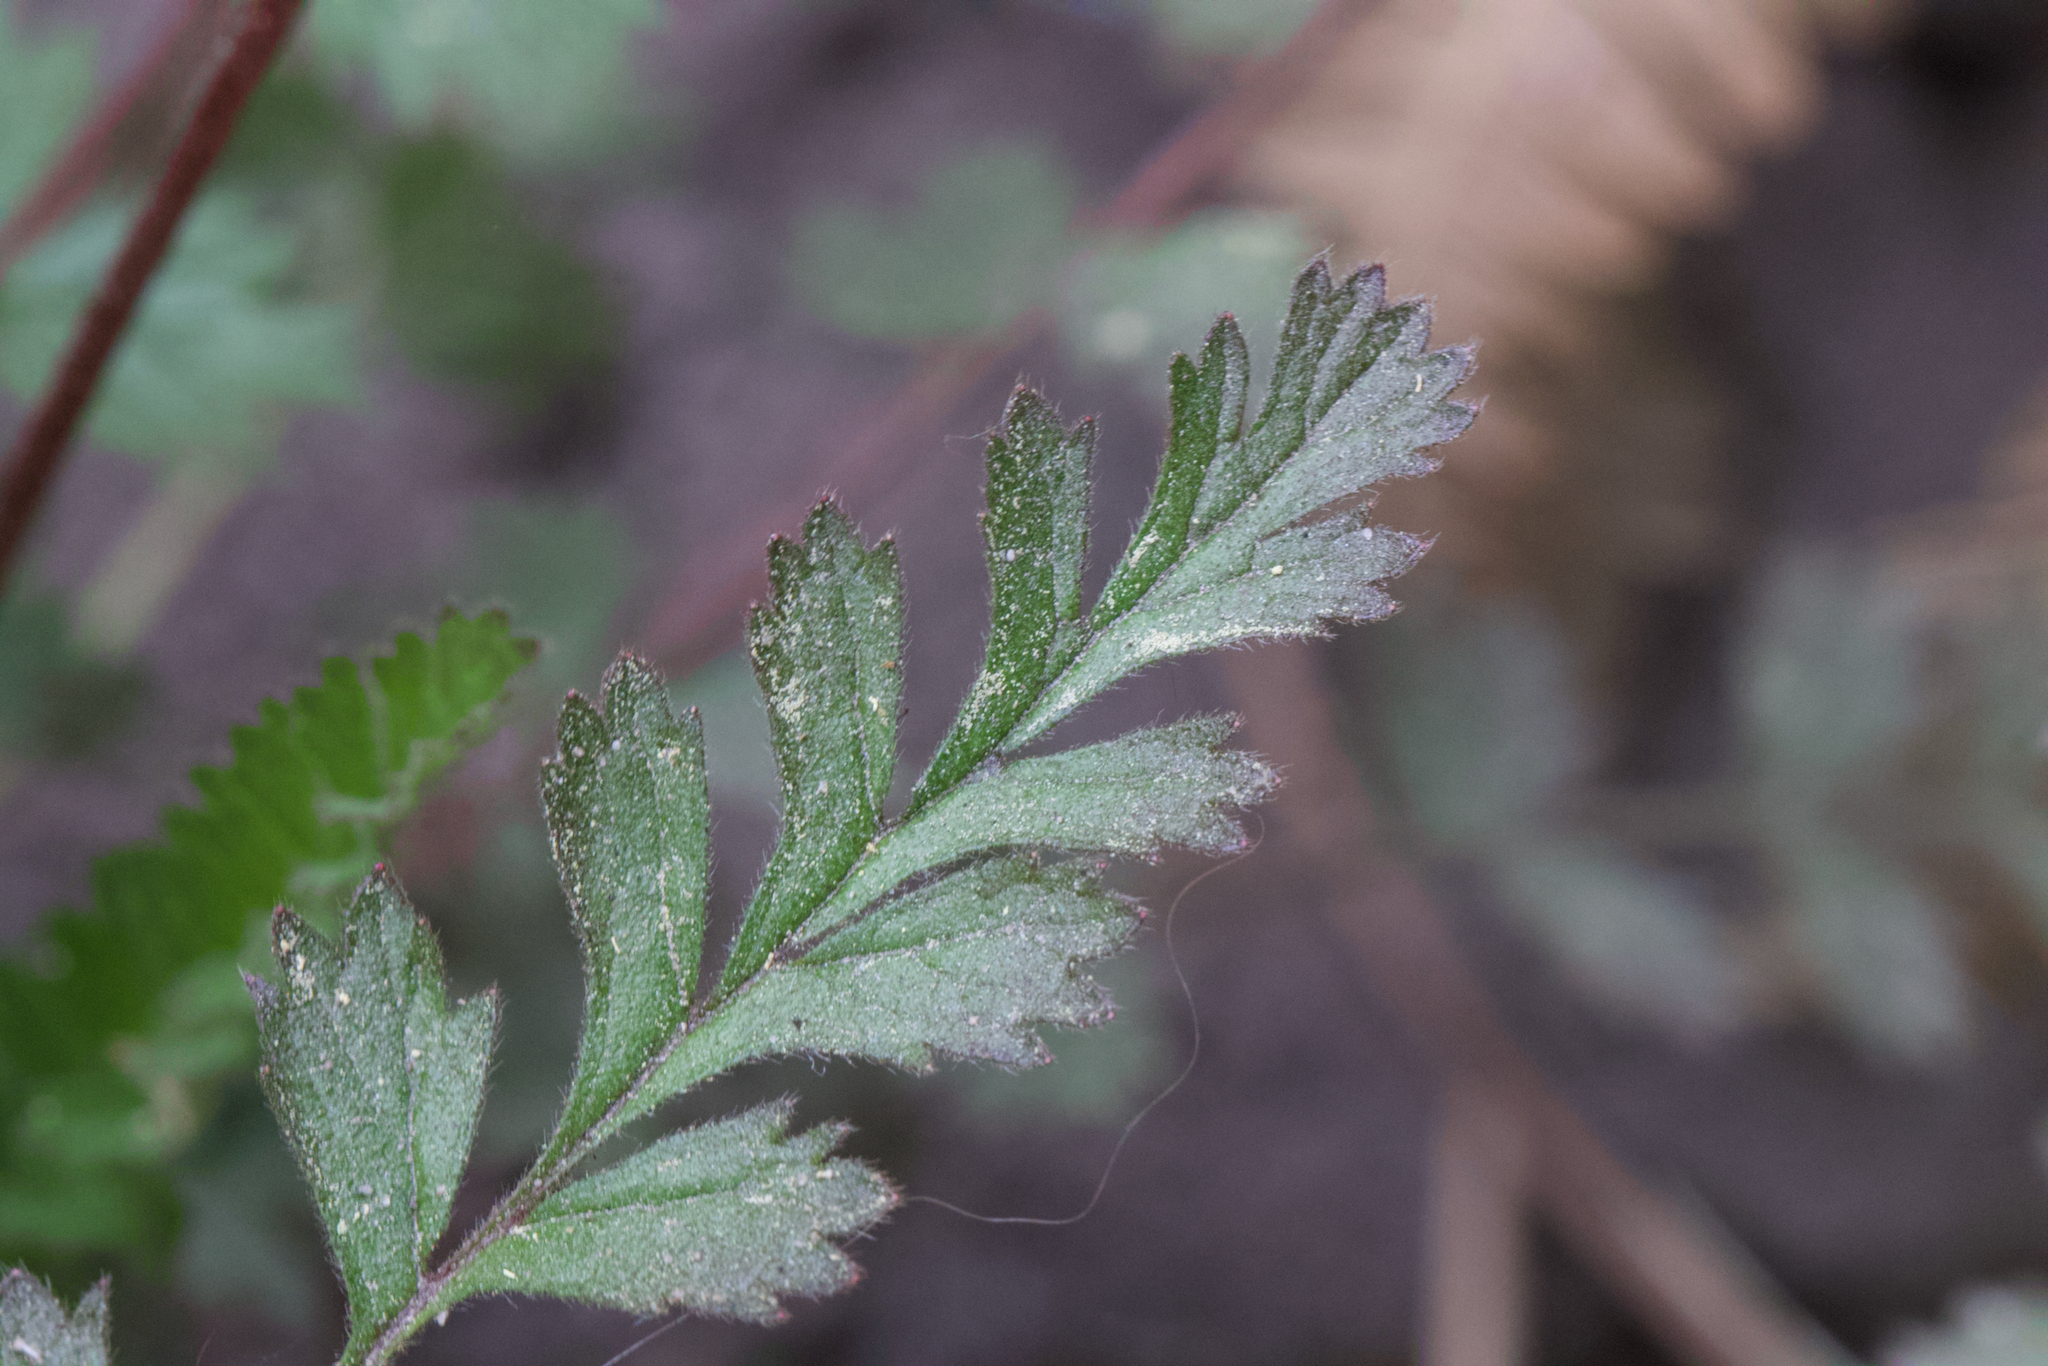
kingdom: Plantae
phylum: Tracheophyta
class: Magnoliopsida
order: Rosales
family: Rosaceae
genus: Potentilla
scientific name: Potentilla
